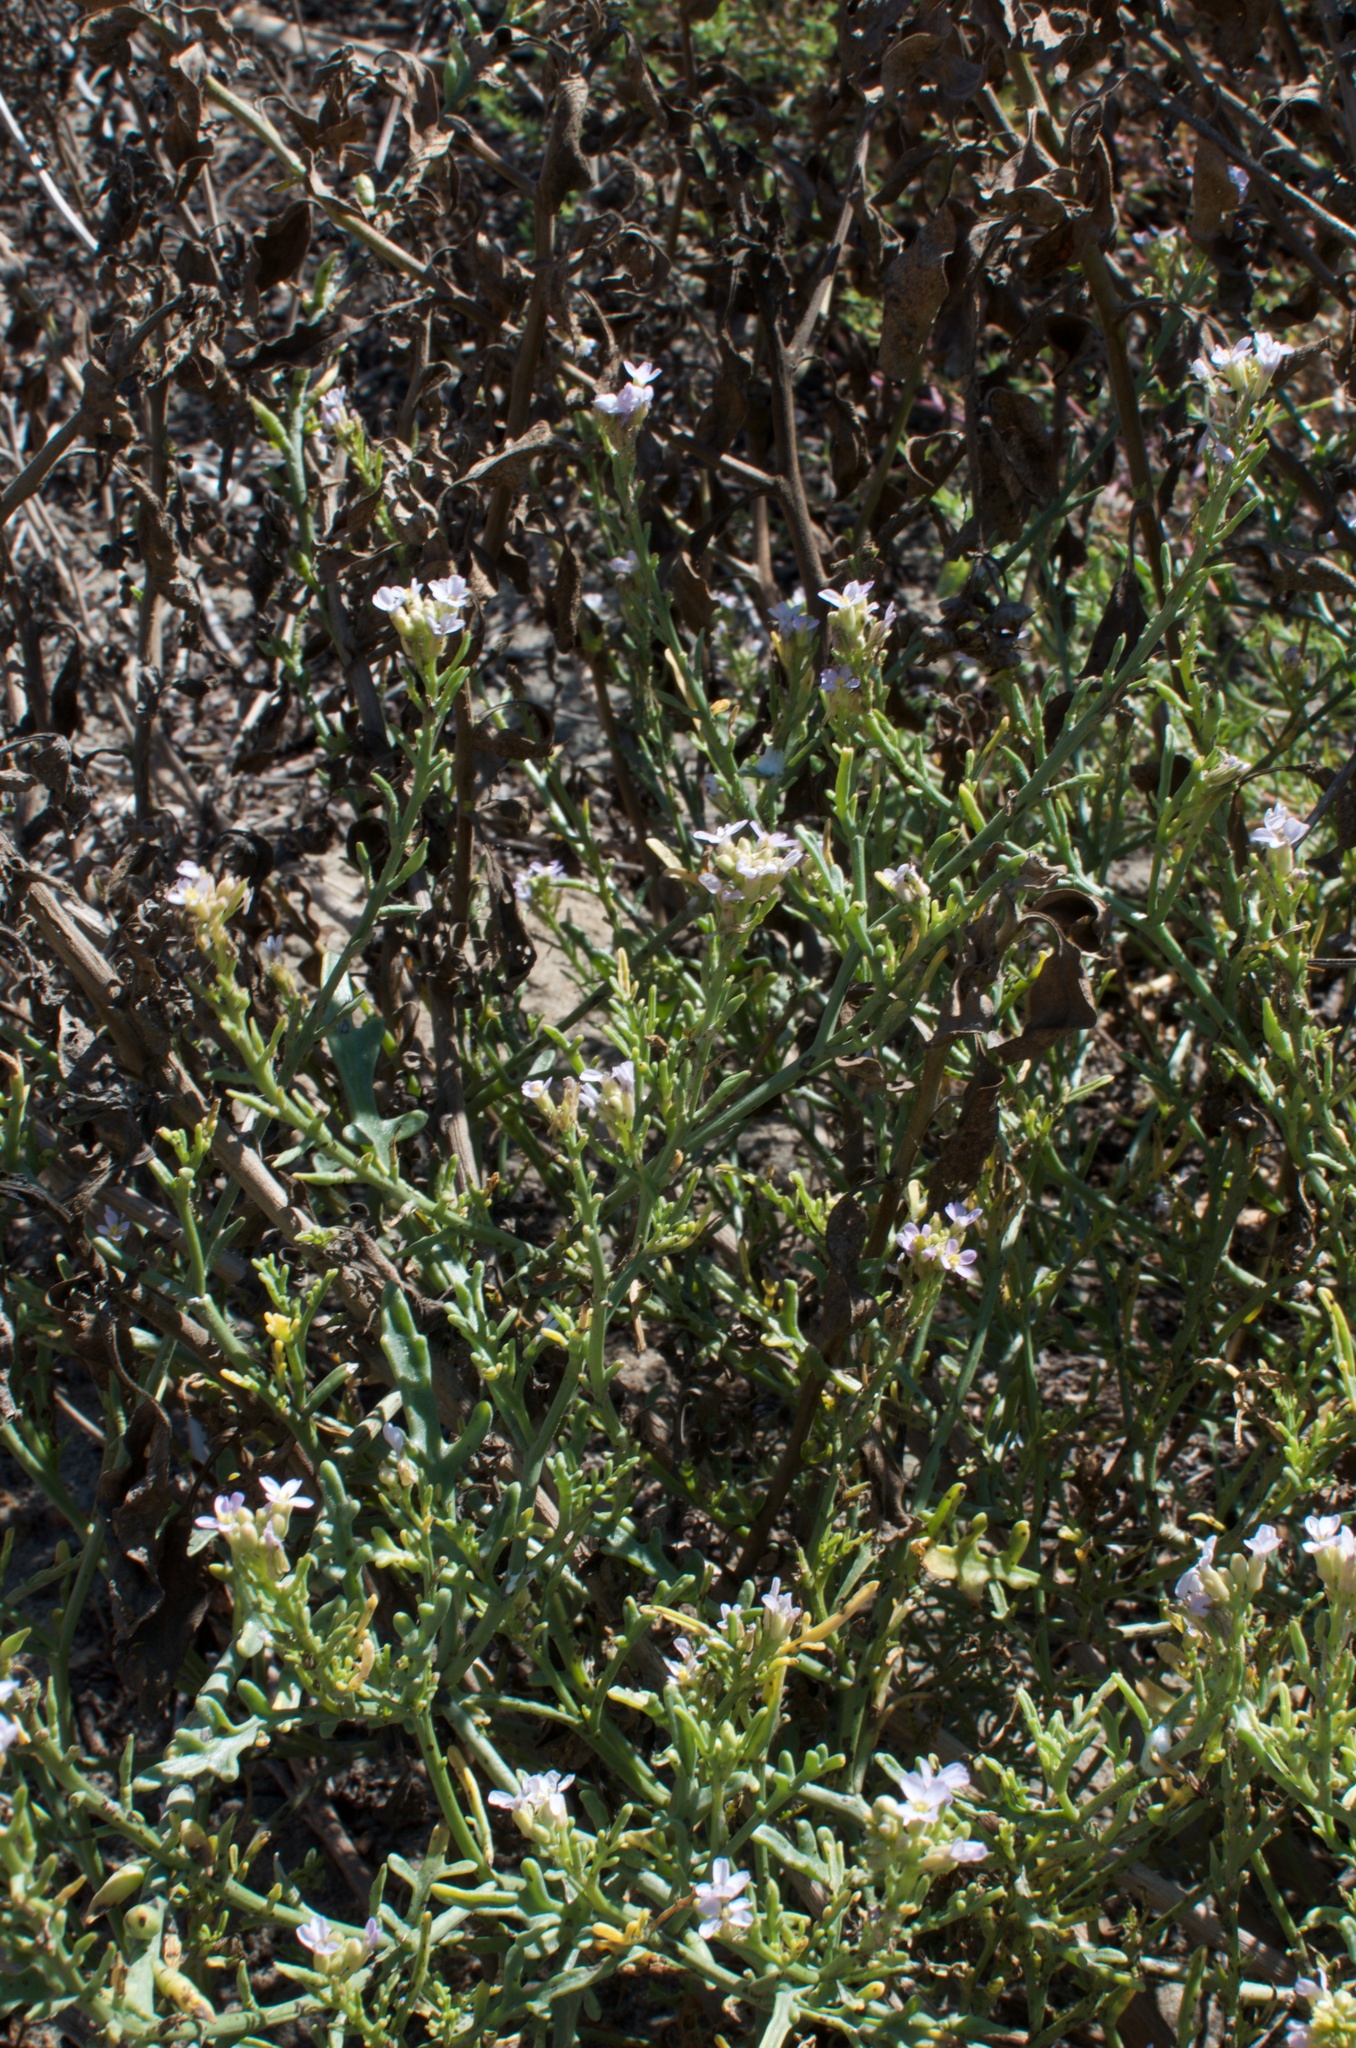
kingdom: Plantae
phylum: Tracheophyta
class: Magnoliopsida
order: Brassicales
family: Brassicaceae
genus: Cakile
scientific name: Cakile maritima
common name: Sea rocket
